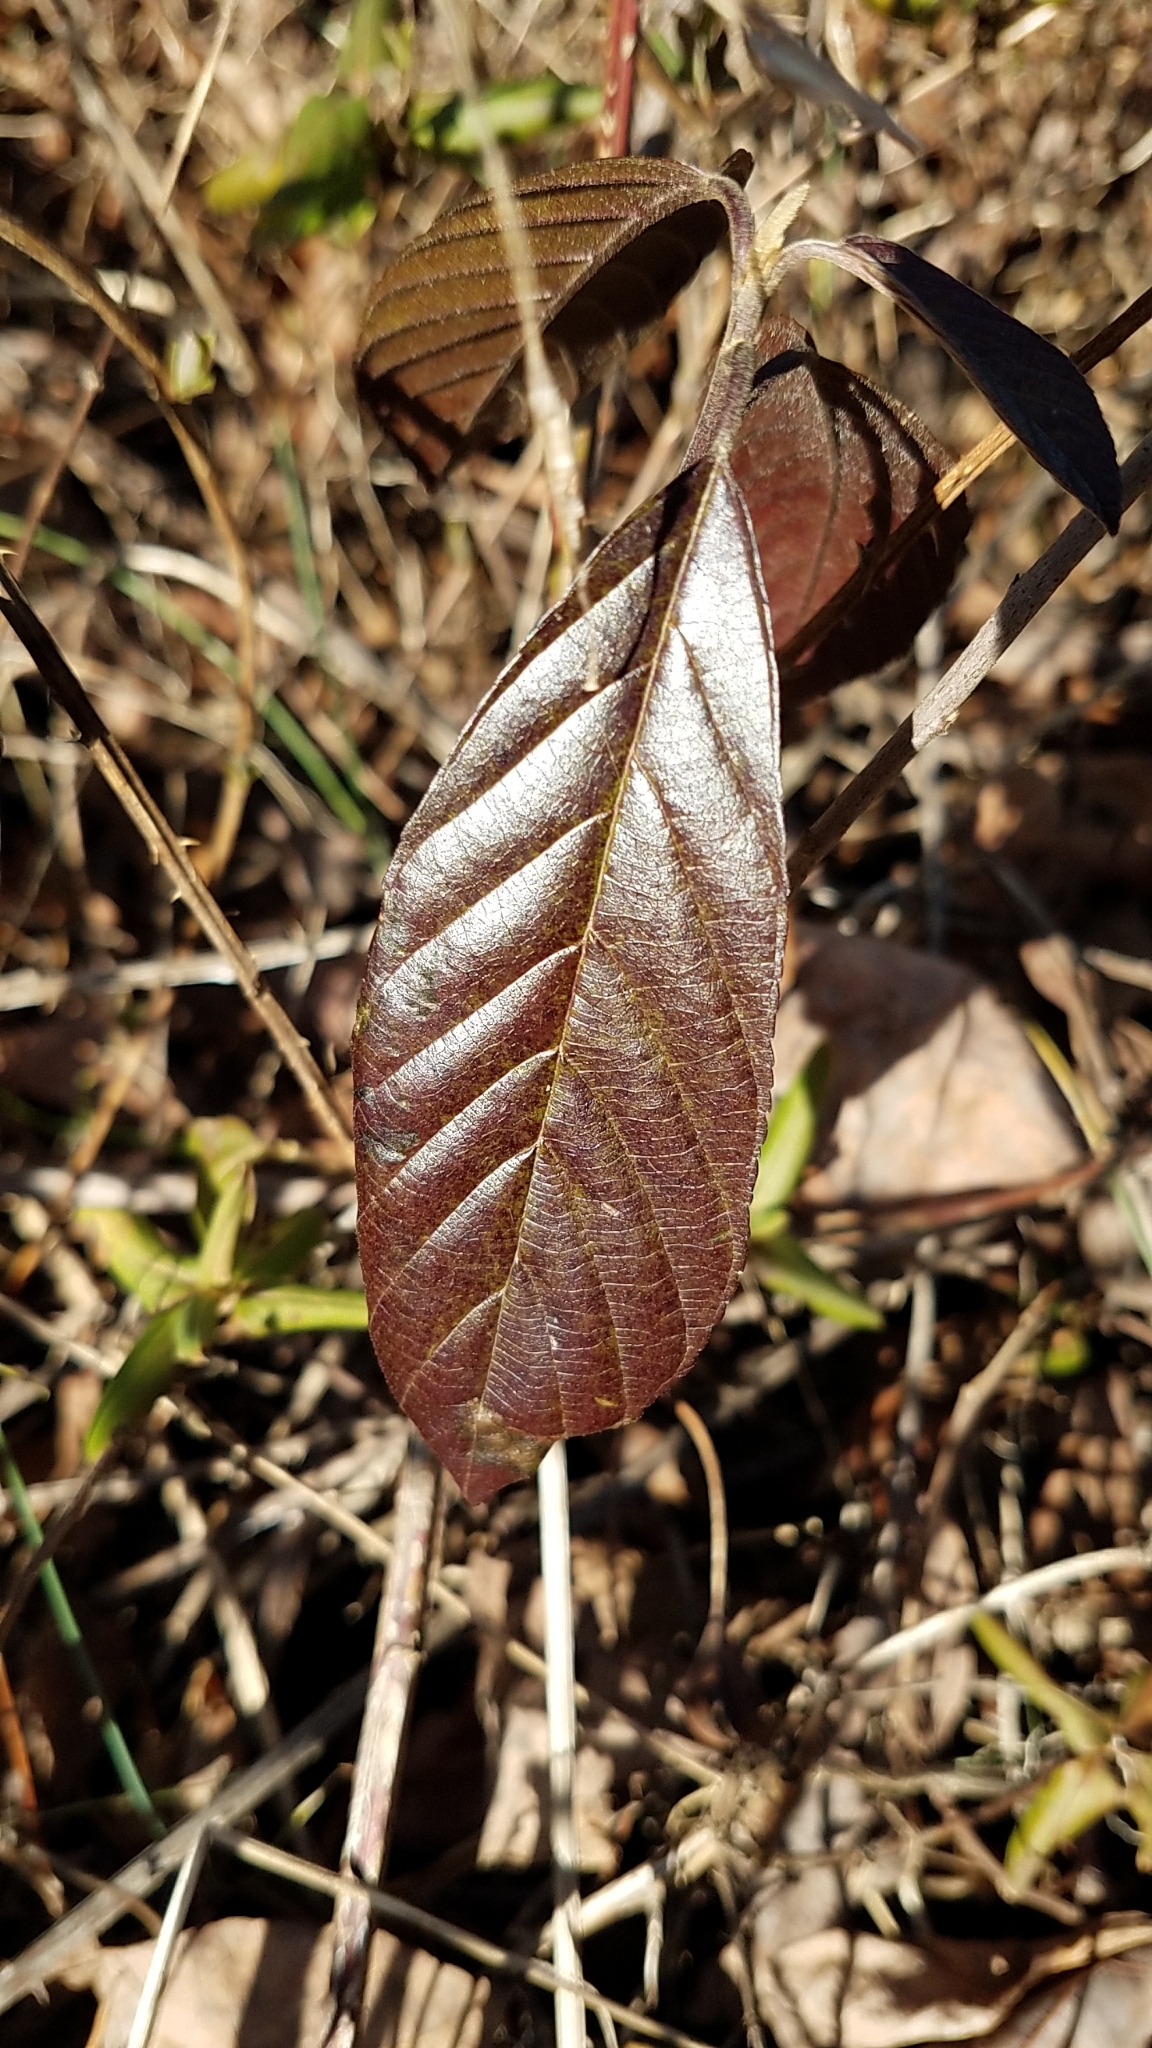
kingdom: Plantae
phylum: Tracheophyta
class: Magnoliopsida
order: Rosales
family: Rhamnaceae
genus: Frangula
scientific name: Frangula caroliniana
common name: Carolina buckthorn
